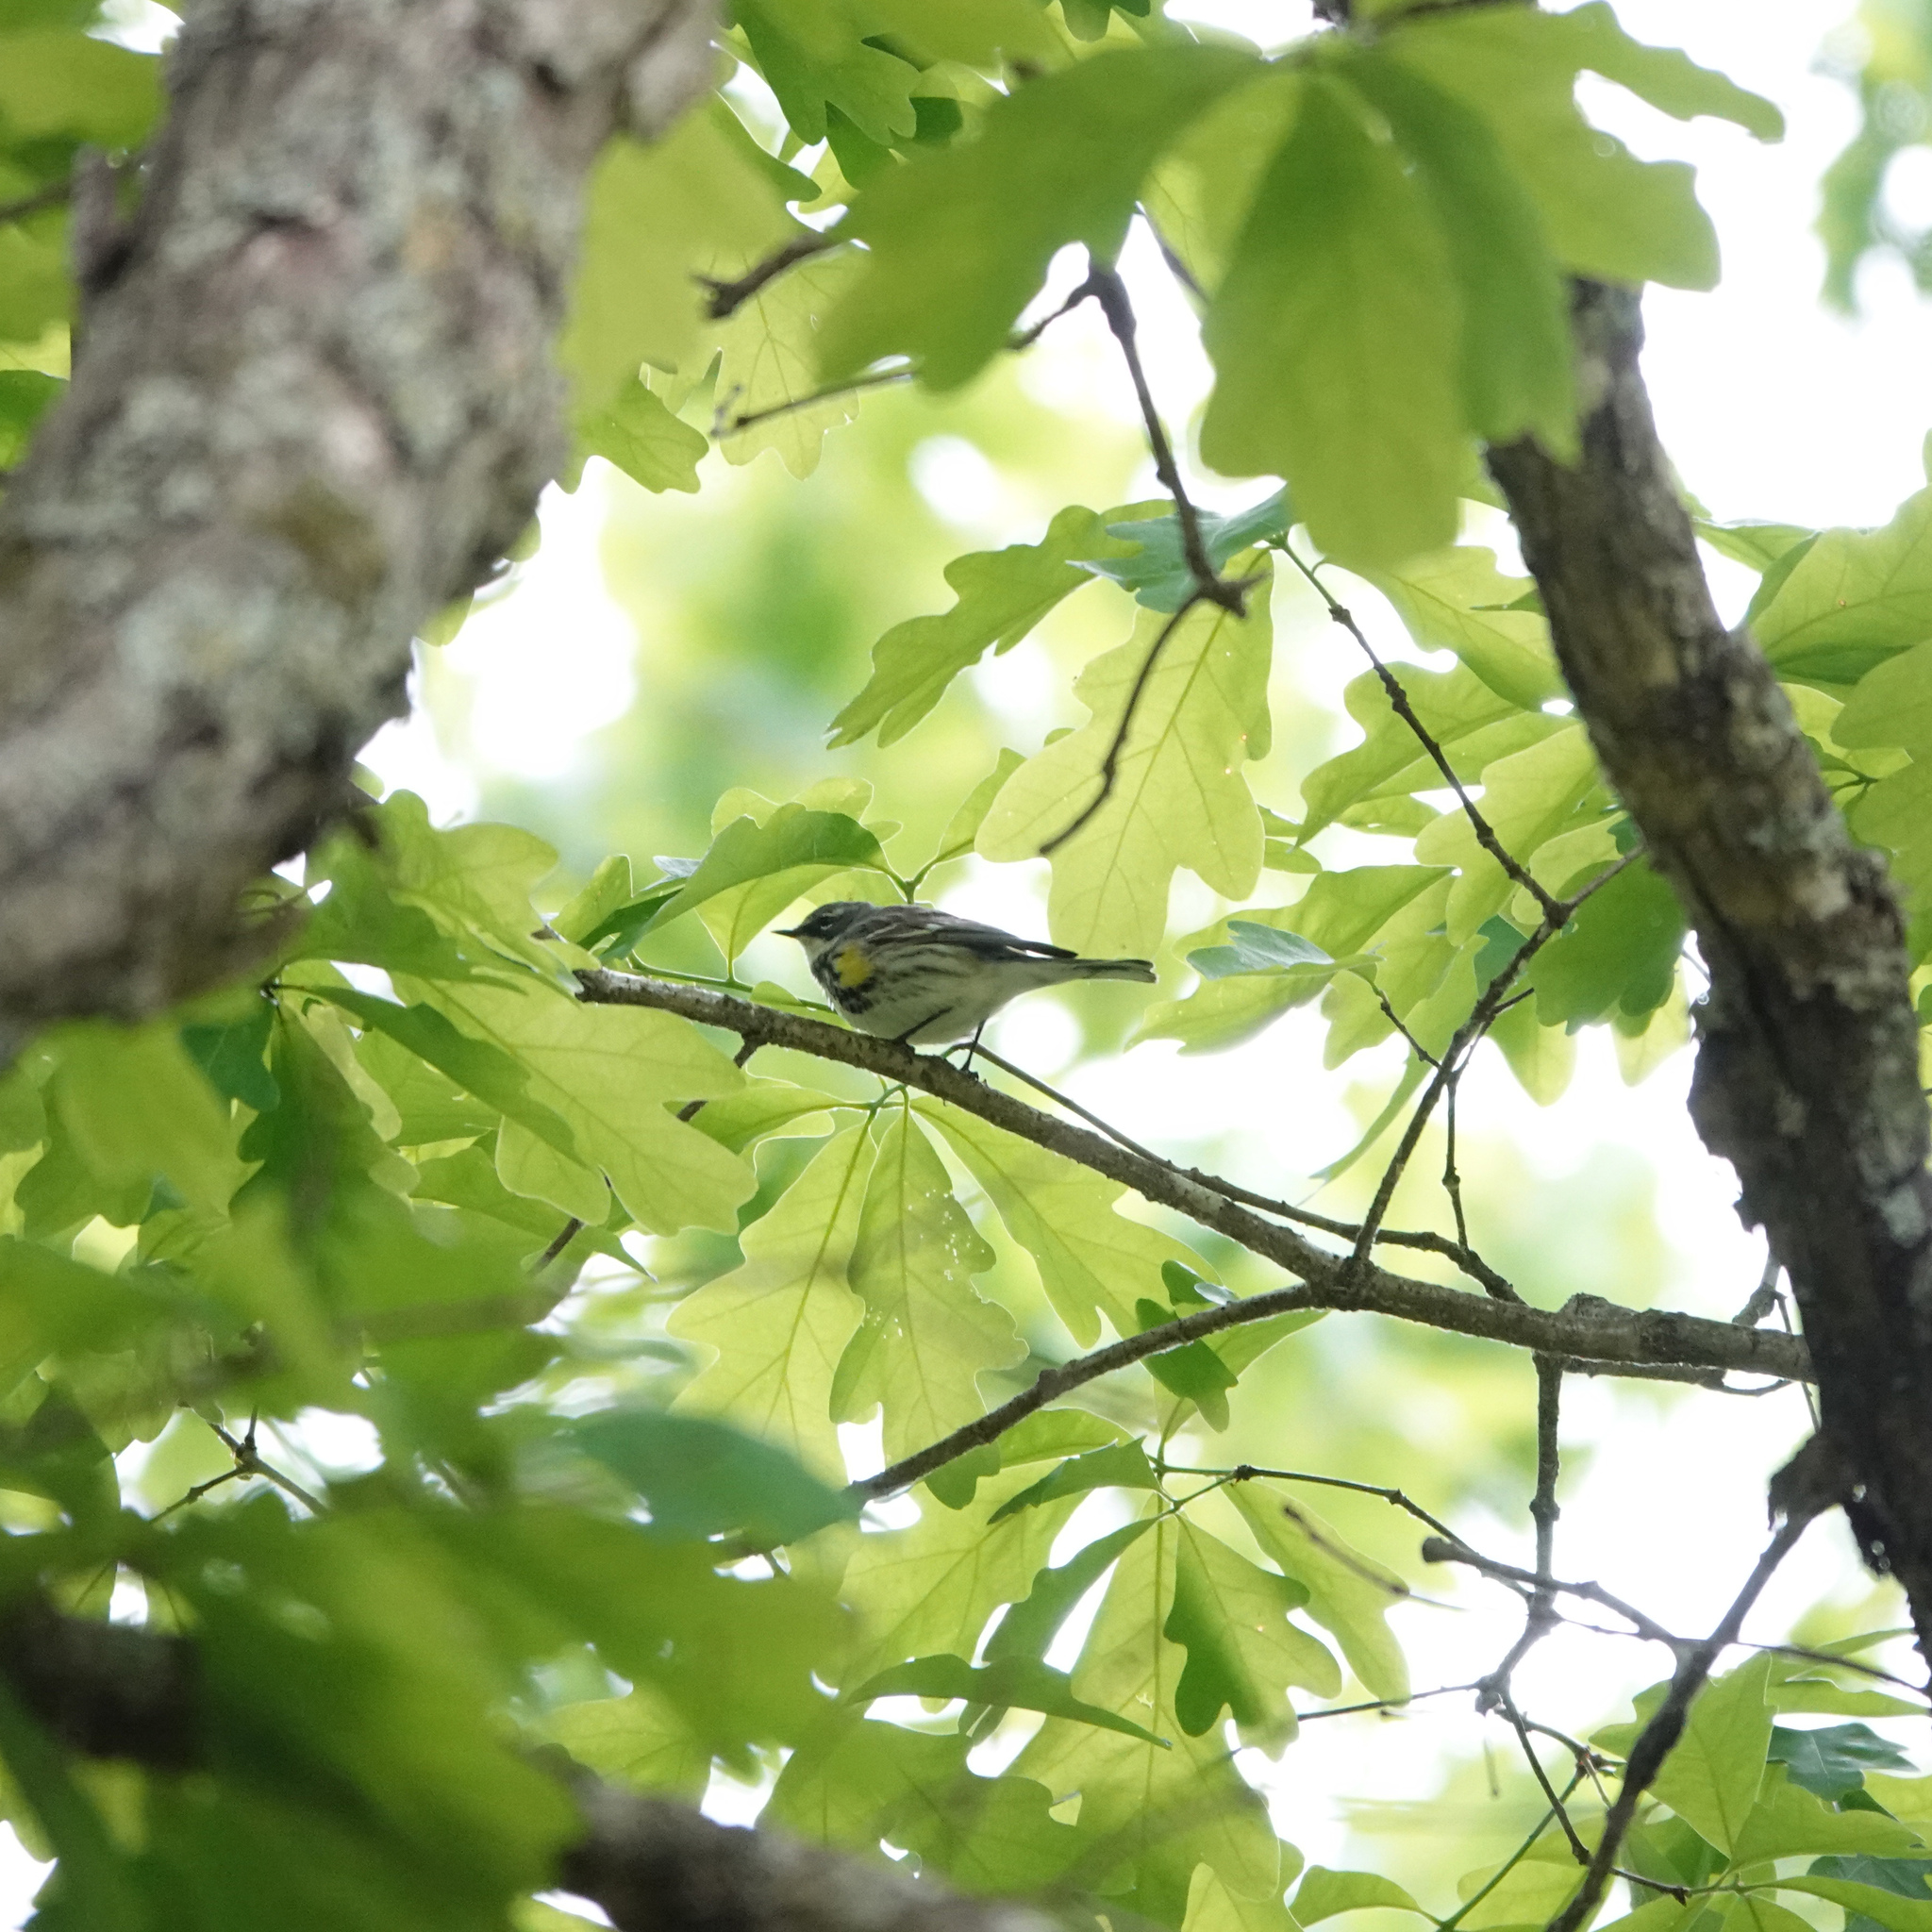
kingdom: Animalia
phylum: Chordata
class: Aves
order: Passeriformes
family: Parulidae
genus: Setophaga
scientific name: Setophaga coronata
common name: Myrtle warbler
